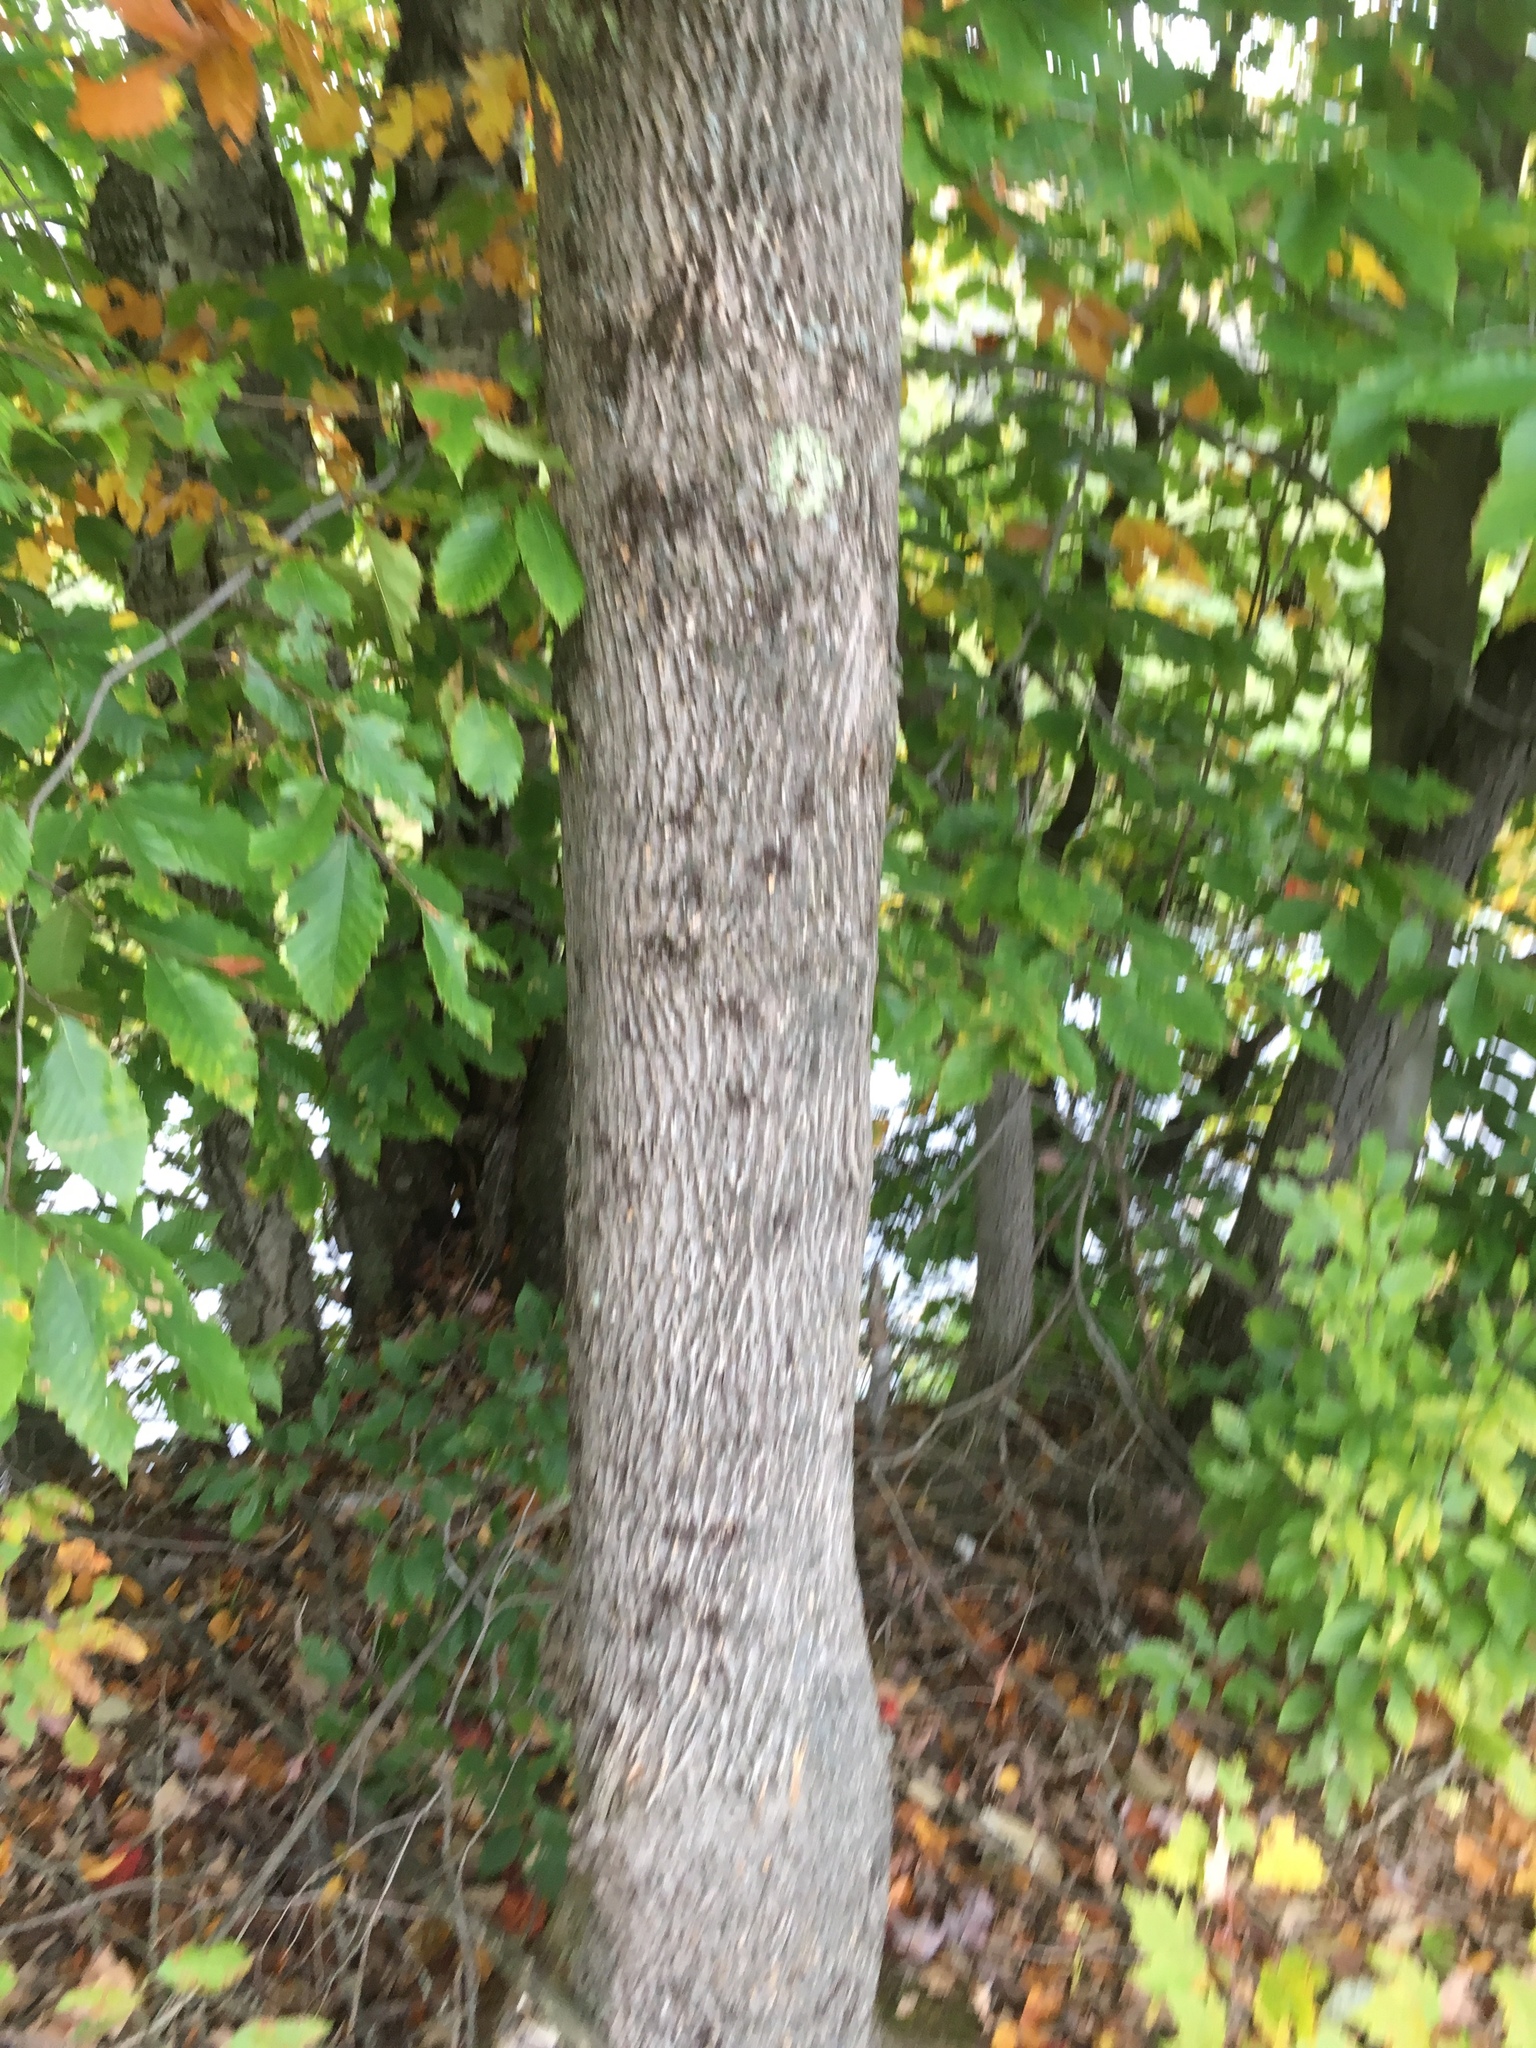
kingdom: Plantae
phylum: Tracheophyta
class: Magnoliopsida
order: Lamiales
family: Oleaceae
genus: Fraxinus
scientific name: Fraxinus americana
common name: White ash
